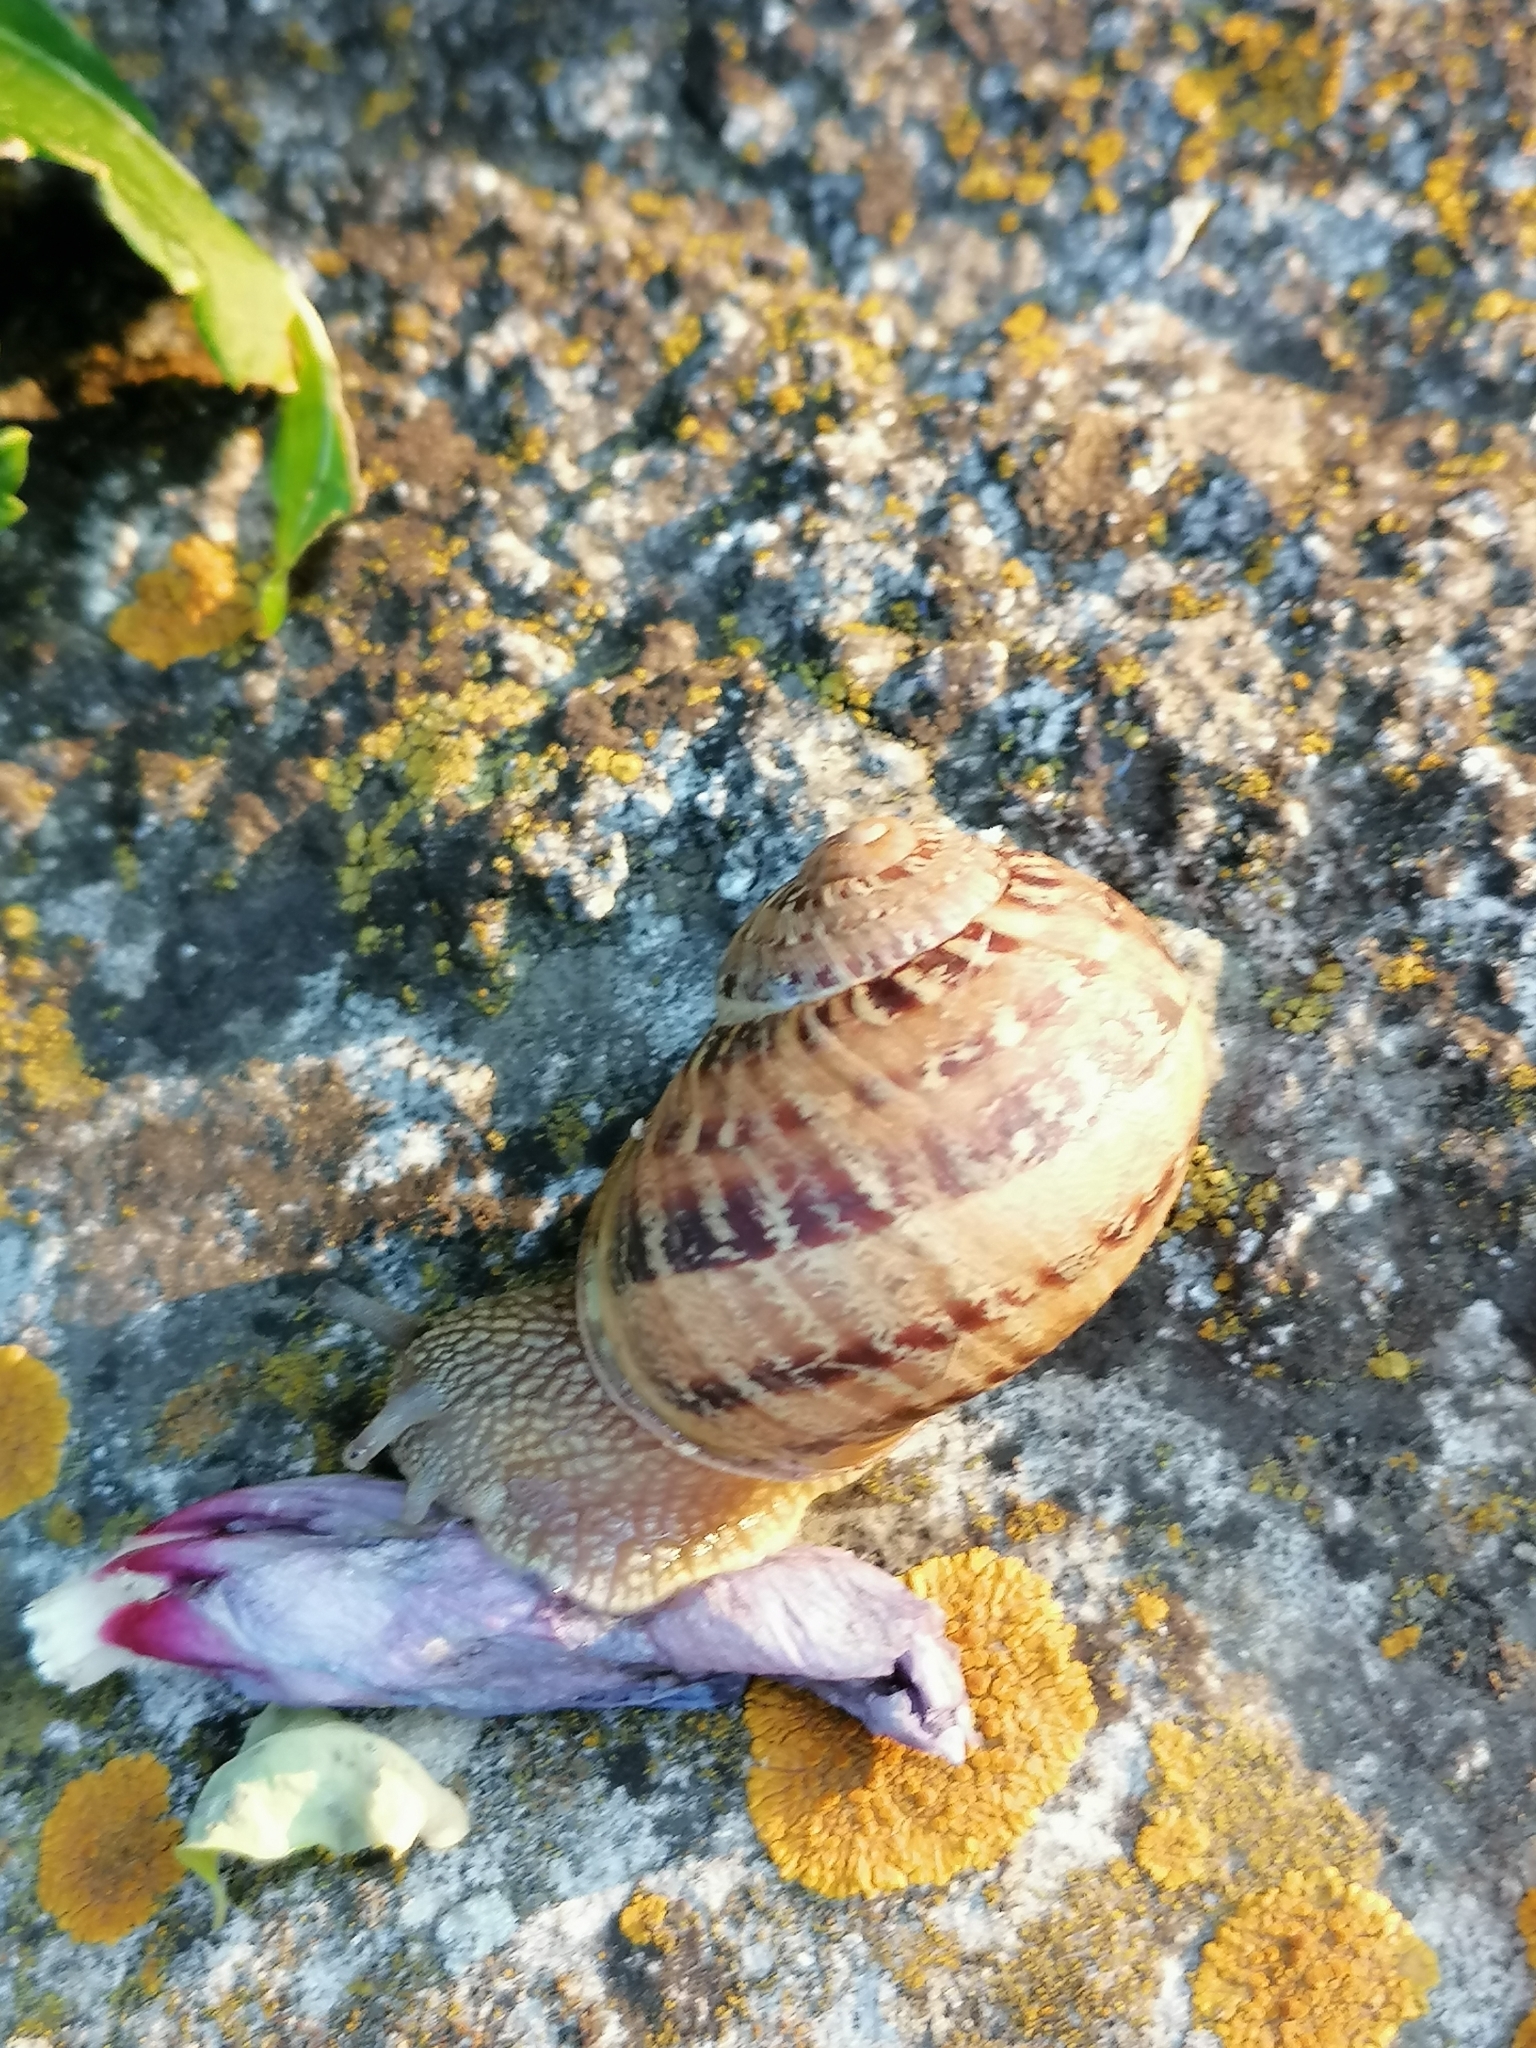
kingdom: Animalia
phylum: Mollusca
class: Gastropoda
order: Stylommatophora
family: Helicidae
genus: Cornu
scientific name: Cornu aspersum
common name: Brown garden snail
